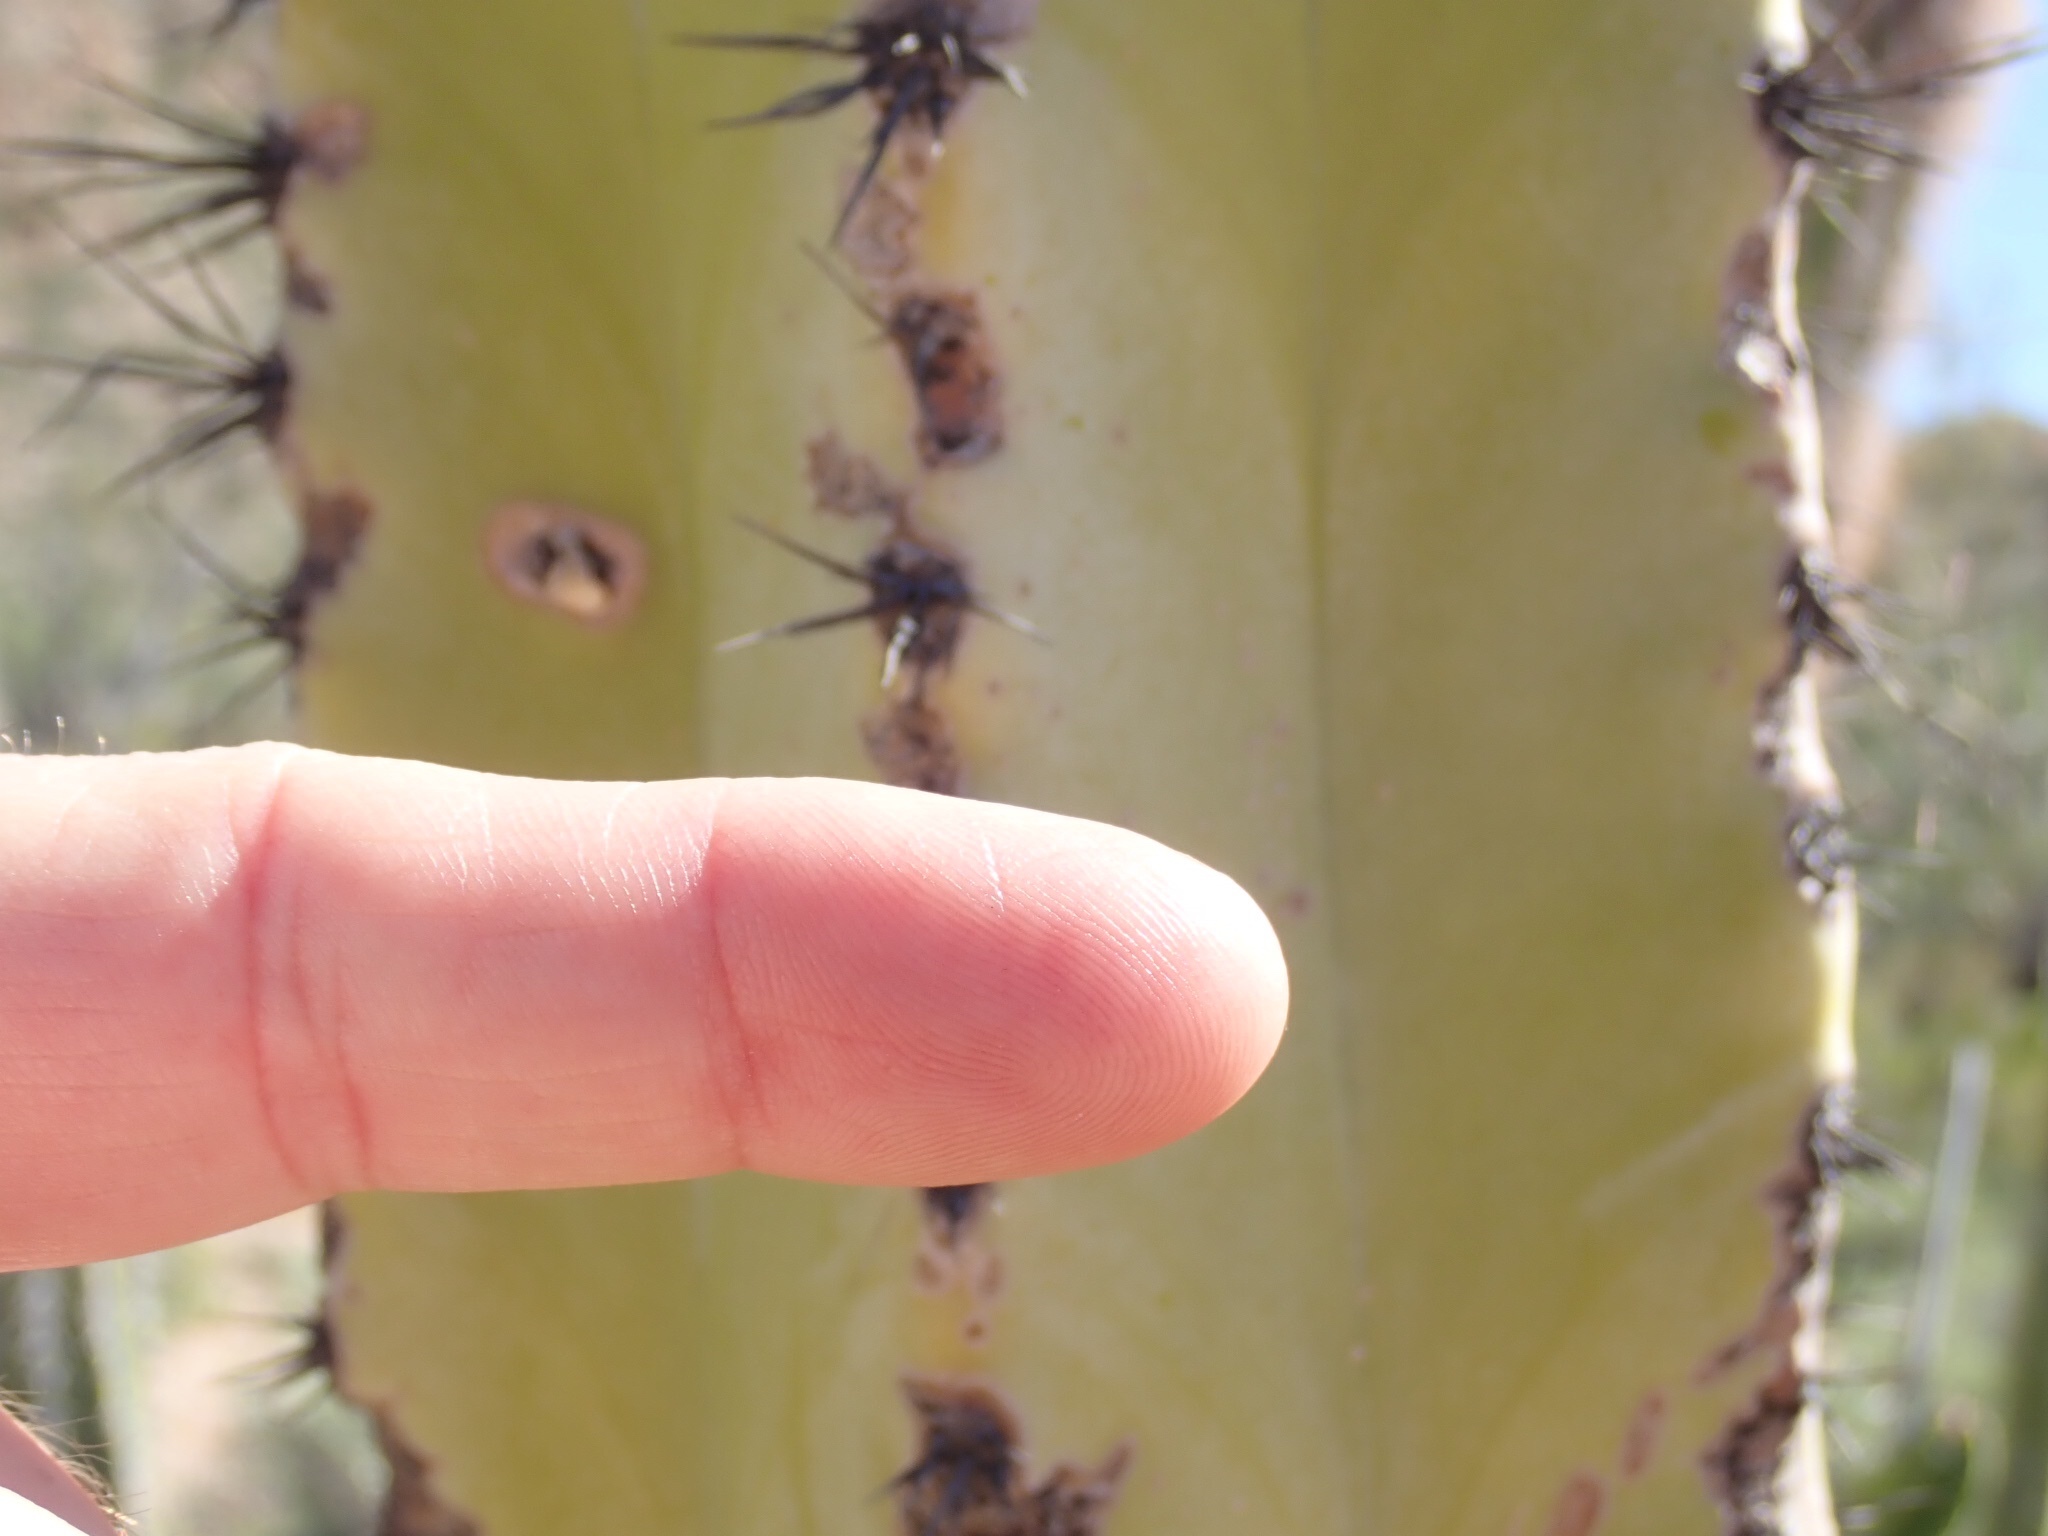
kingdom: Plantae
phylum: Tracheophyta
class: Magnoliopsida
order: Caryophyllales
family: Cactaceae
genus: Pachycereus
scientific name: Pachycereus schottii
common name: Senita cactus
